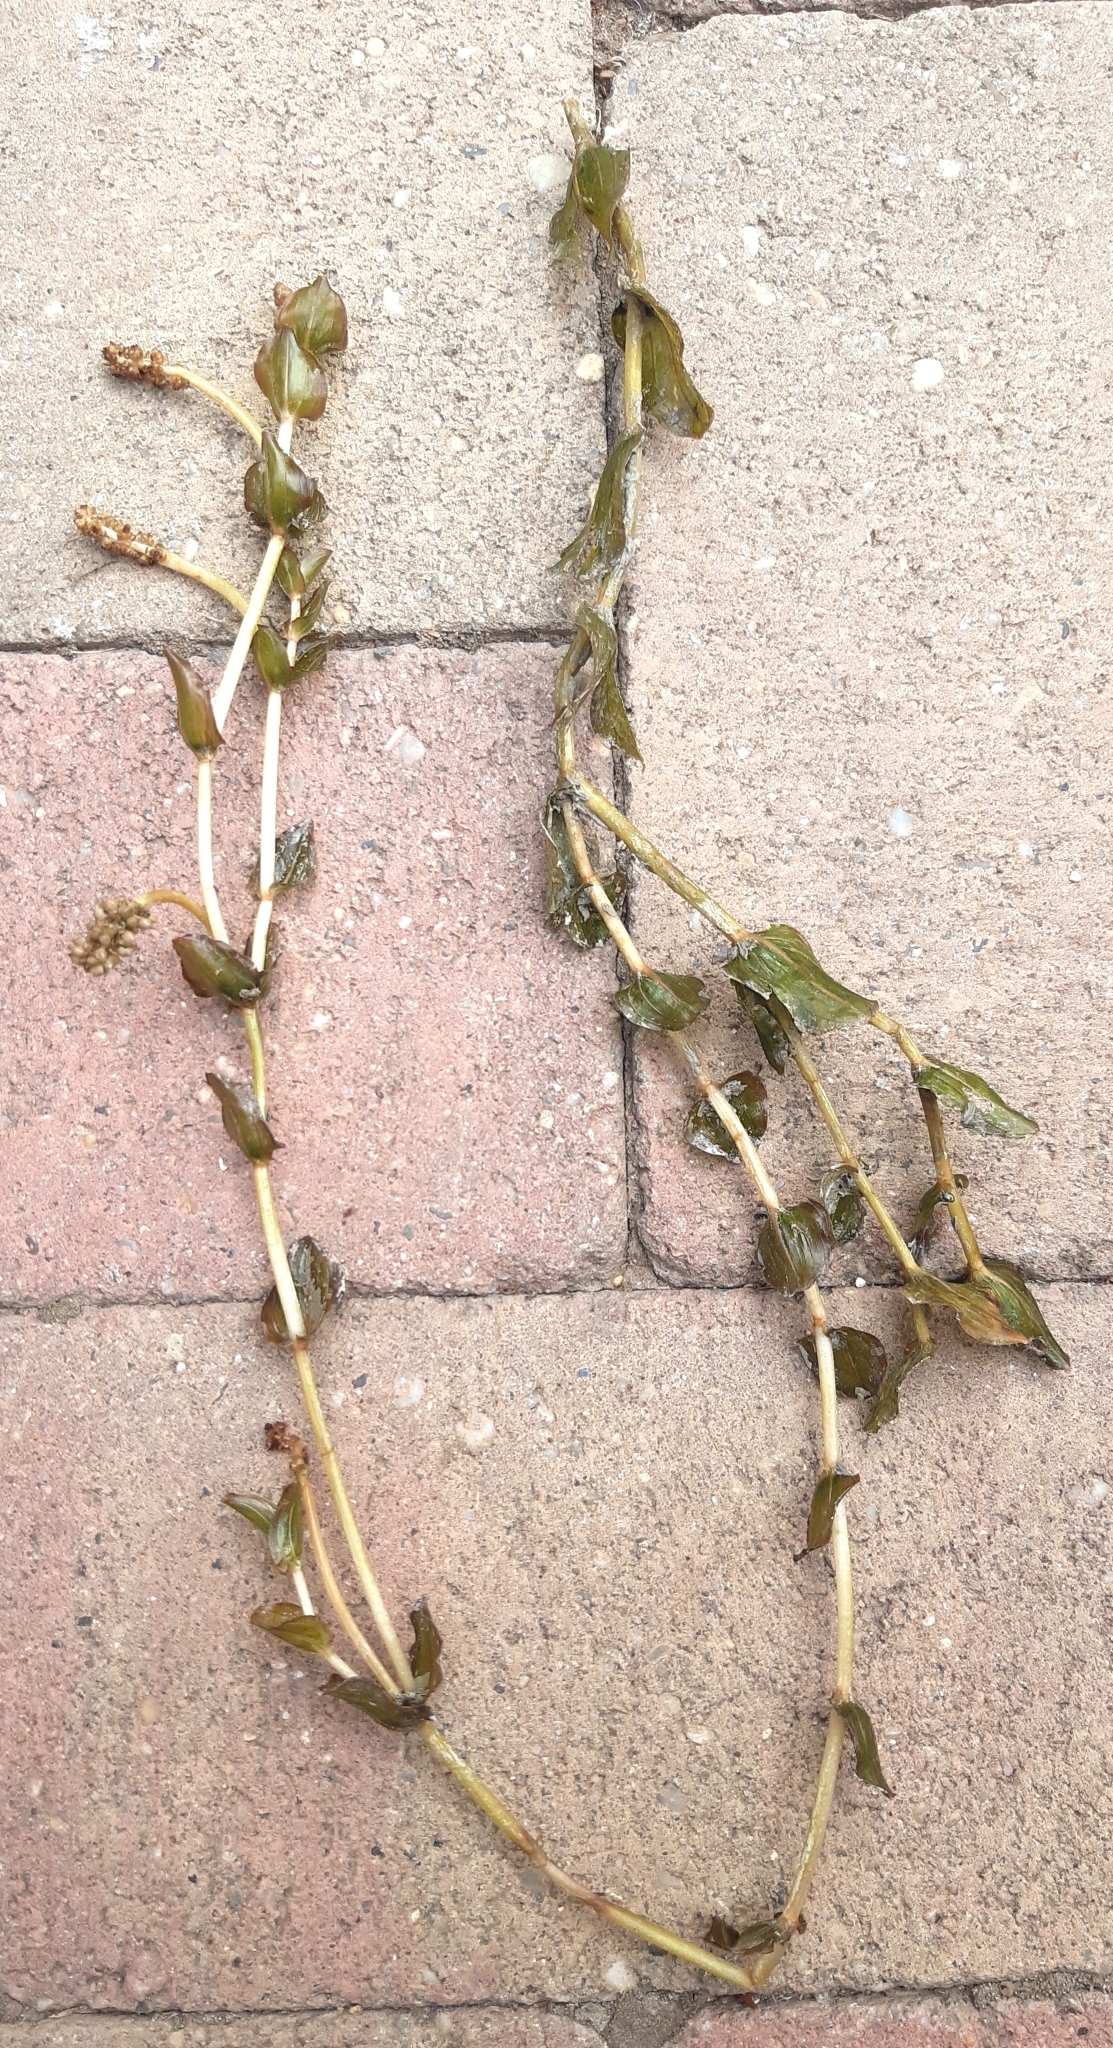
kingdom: Plantae
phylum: Tracheophyta
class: Liliopsida
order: Alismatales
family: Potamogetonaceae
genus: Potamogeton
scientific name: Potamogeton perfoliatus
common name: Perfoliate pondweed
